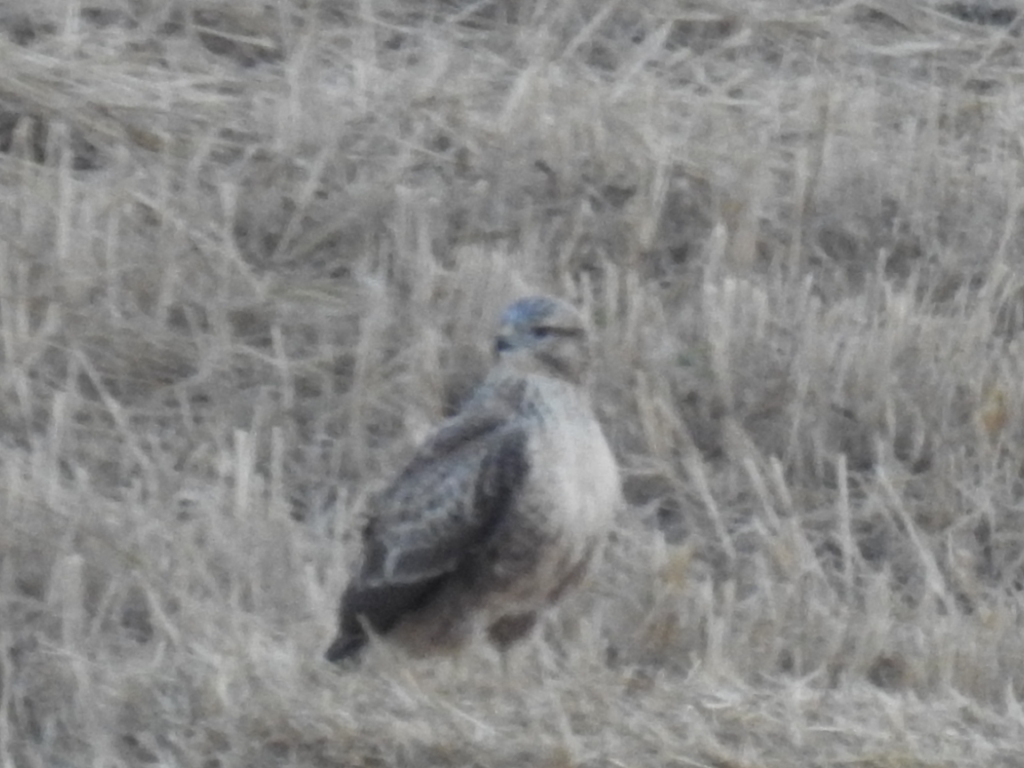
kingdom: Animalia
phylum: Chordata
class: Aves
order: Accipitriformes
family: Accipitridae
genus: Buteo
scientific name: Buteo rufinus
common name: Long-legged buzzard
